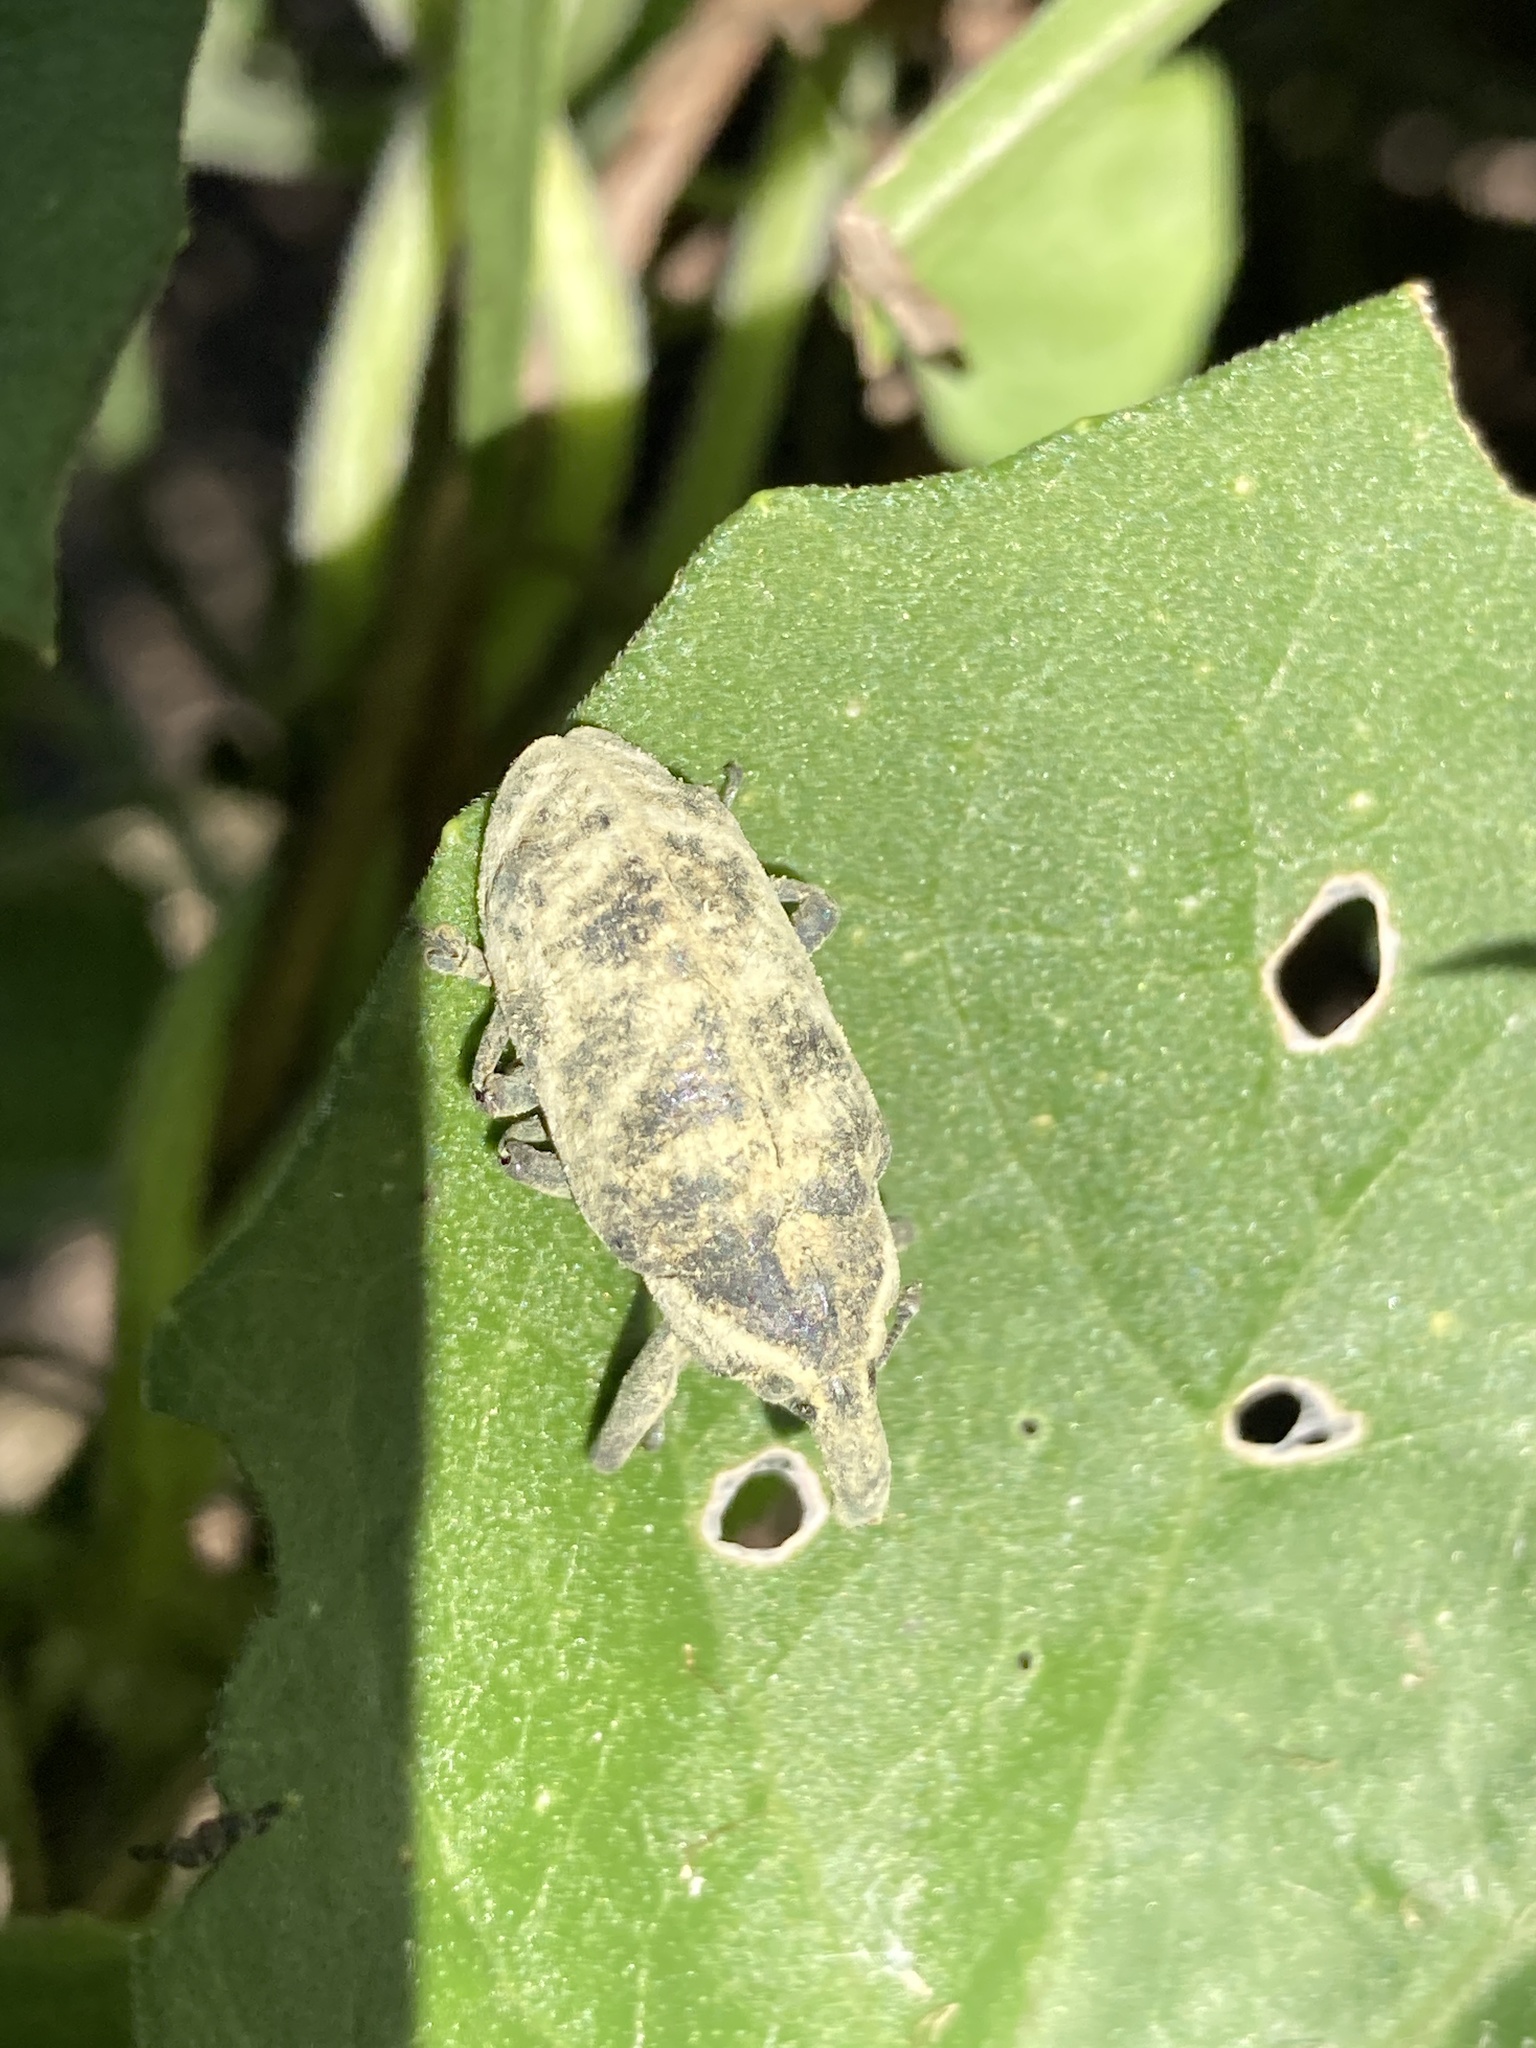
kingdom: Animalia
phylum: Arthropoda
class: Insecta
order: Coleoptera
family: Curculionidae
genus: Ileomus
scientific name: Ileomus mucoreus
